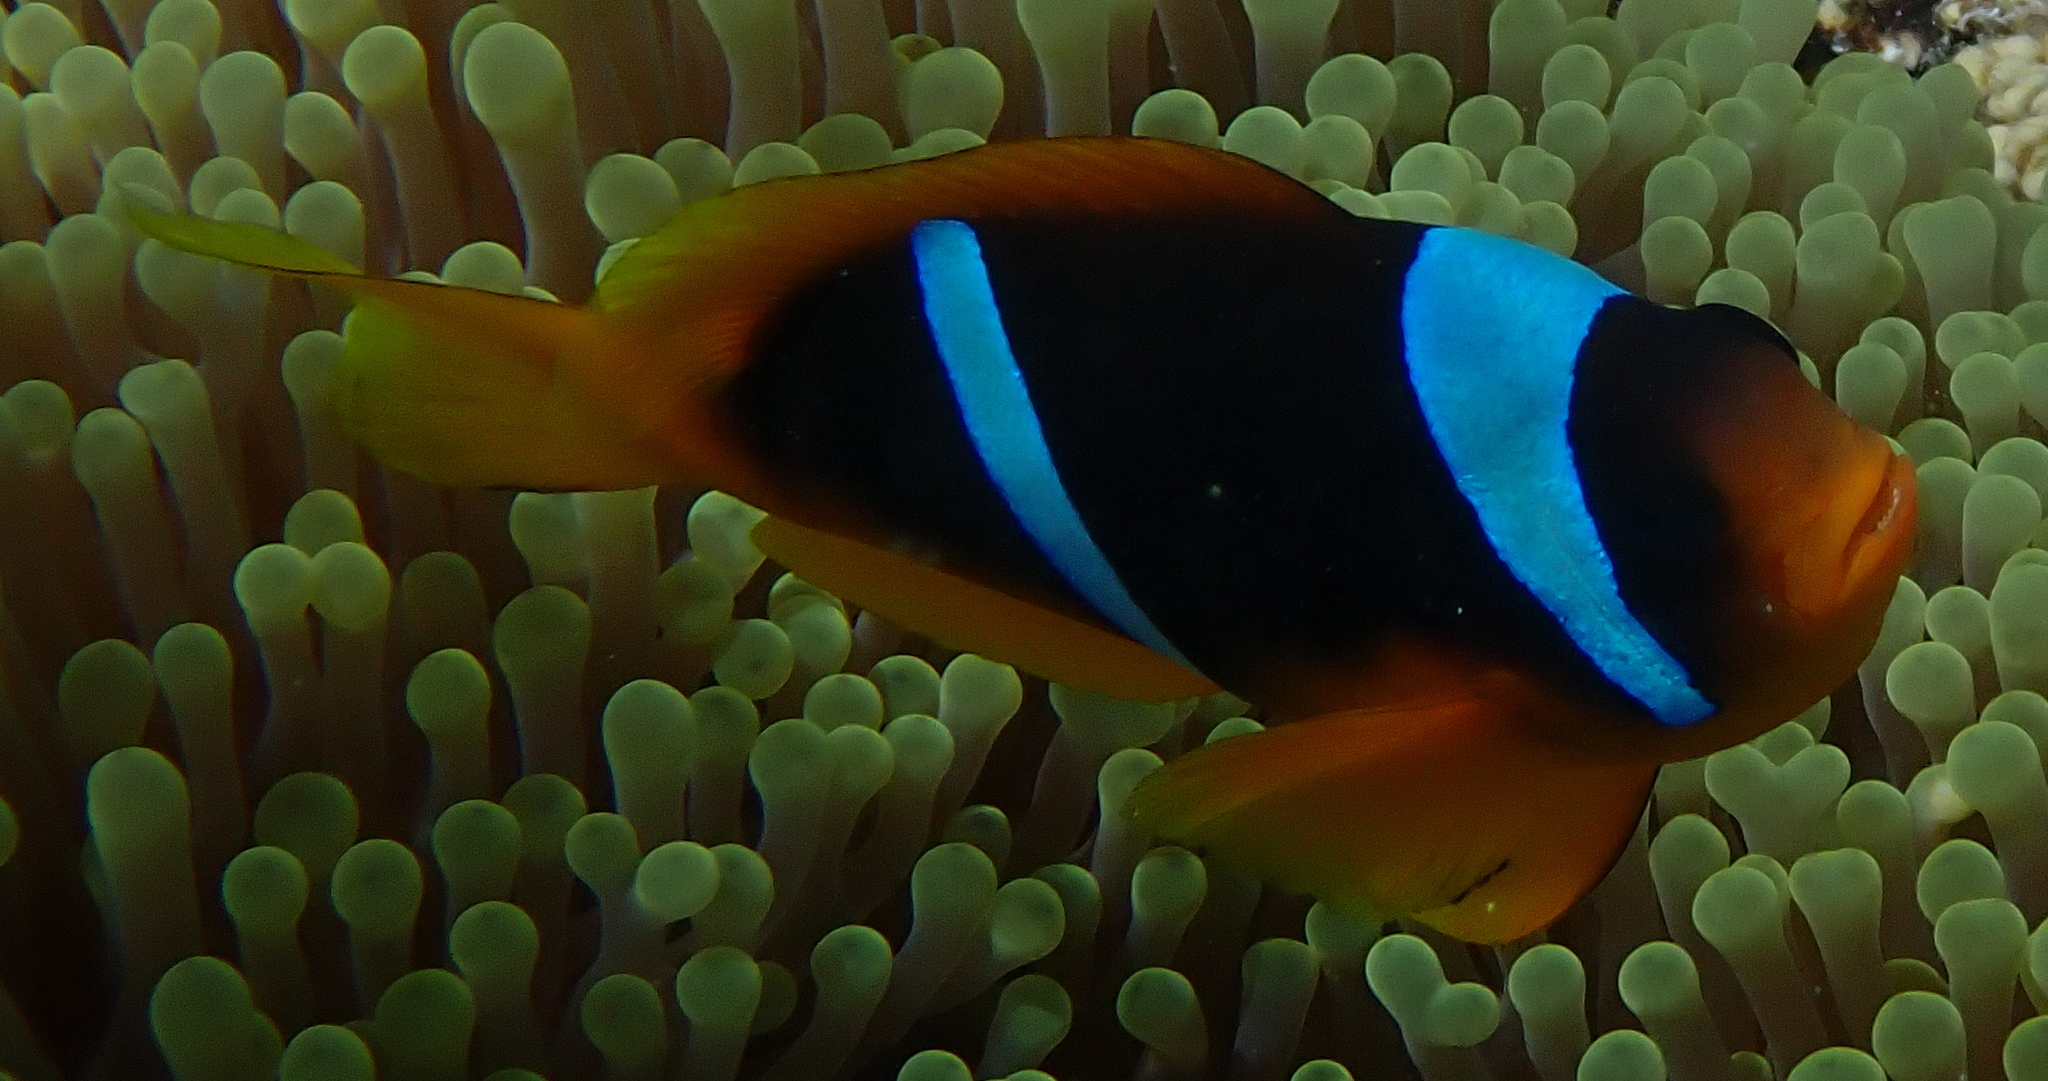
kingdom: Animalia
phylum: Chordata
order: Perciformes
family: Pomacentridae
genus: Amphiprion
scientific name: Amphiprion bicinctus
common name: Two-banded anemonefish
